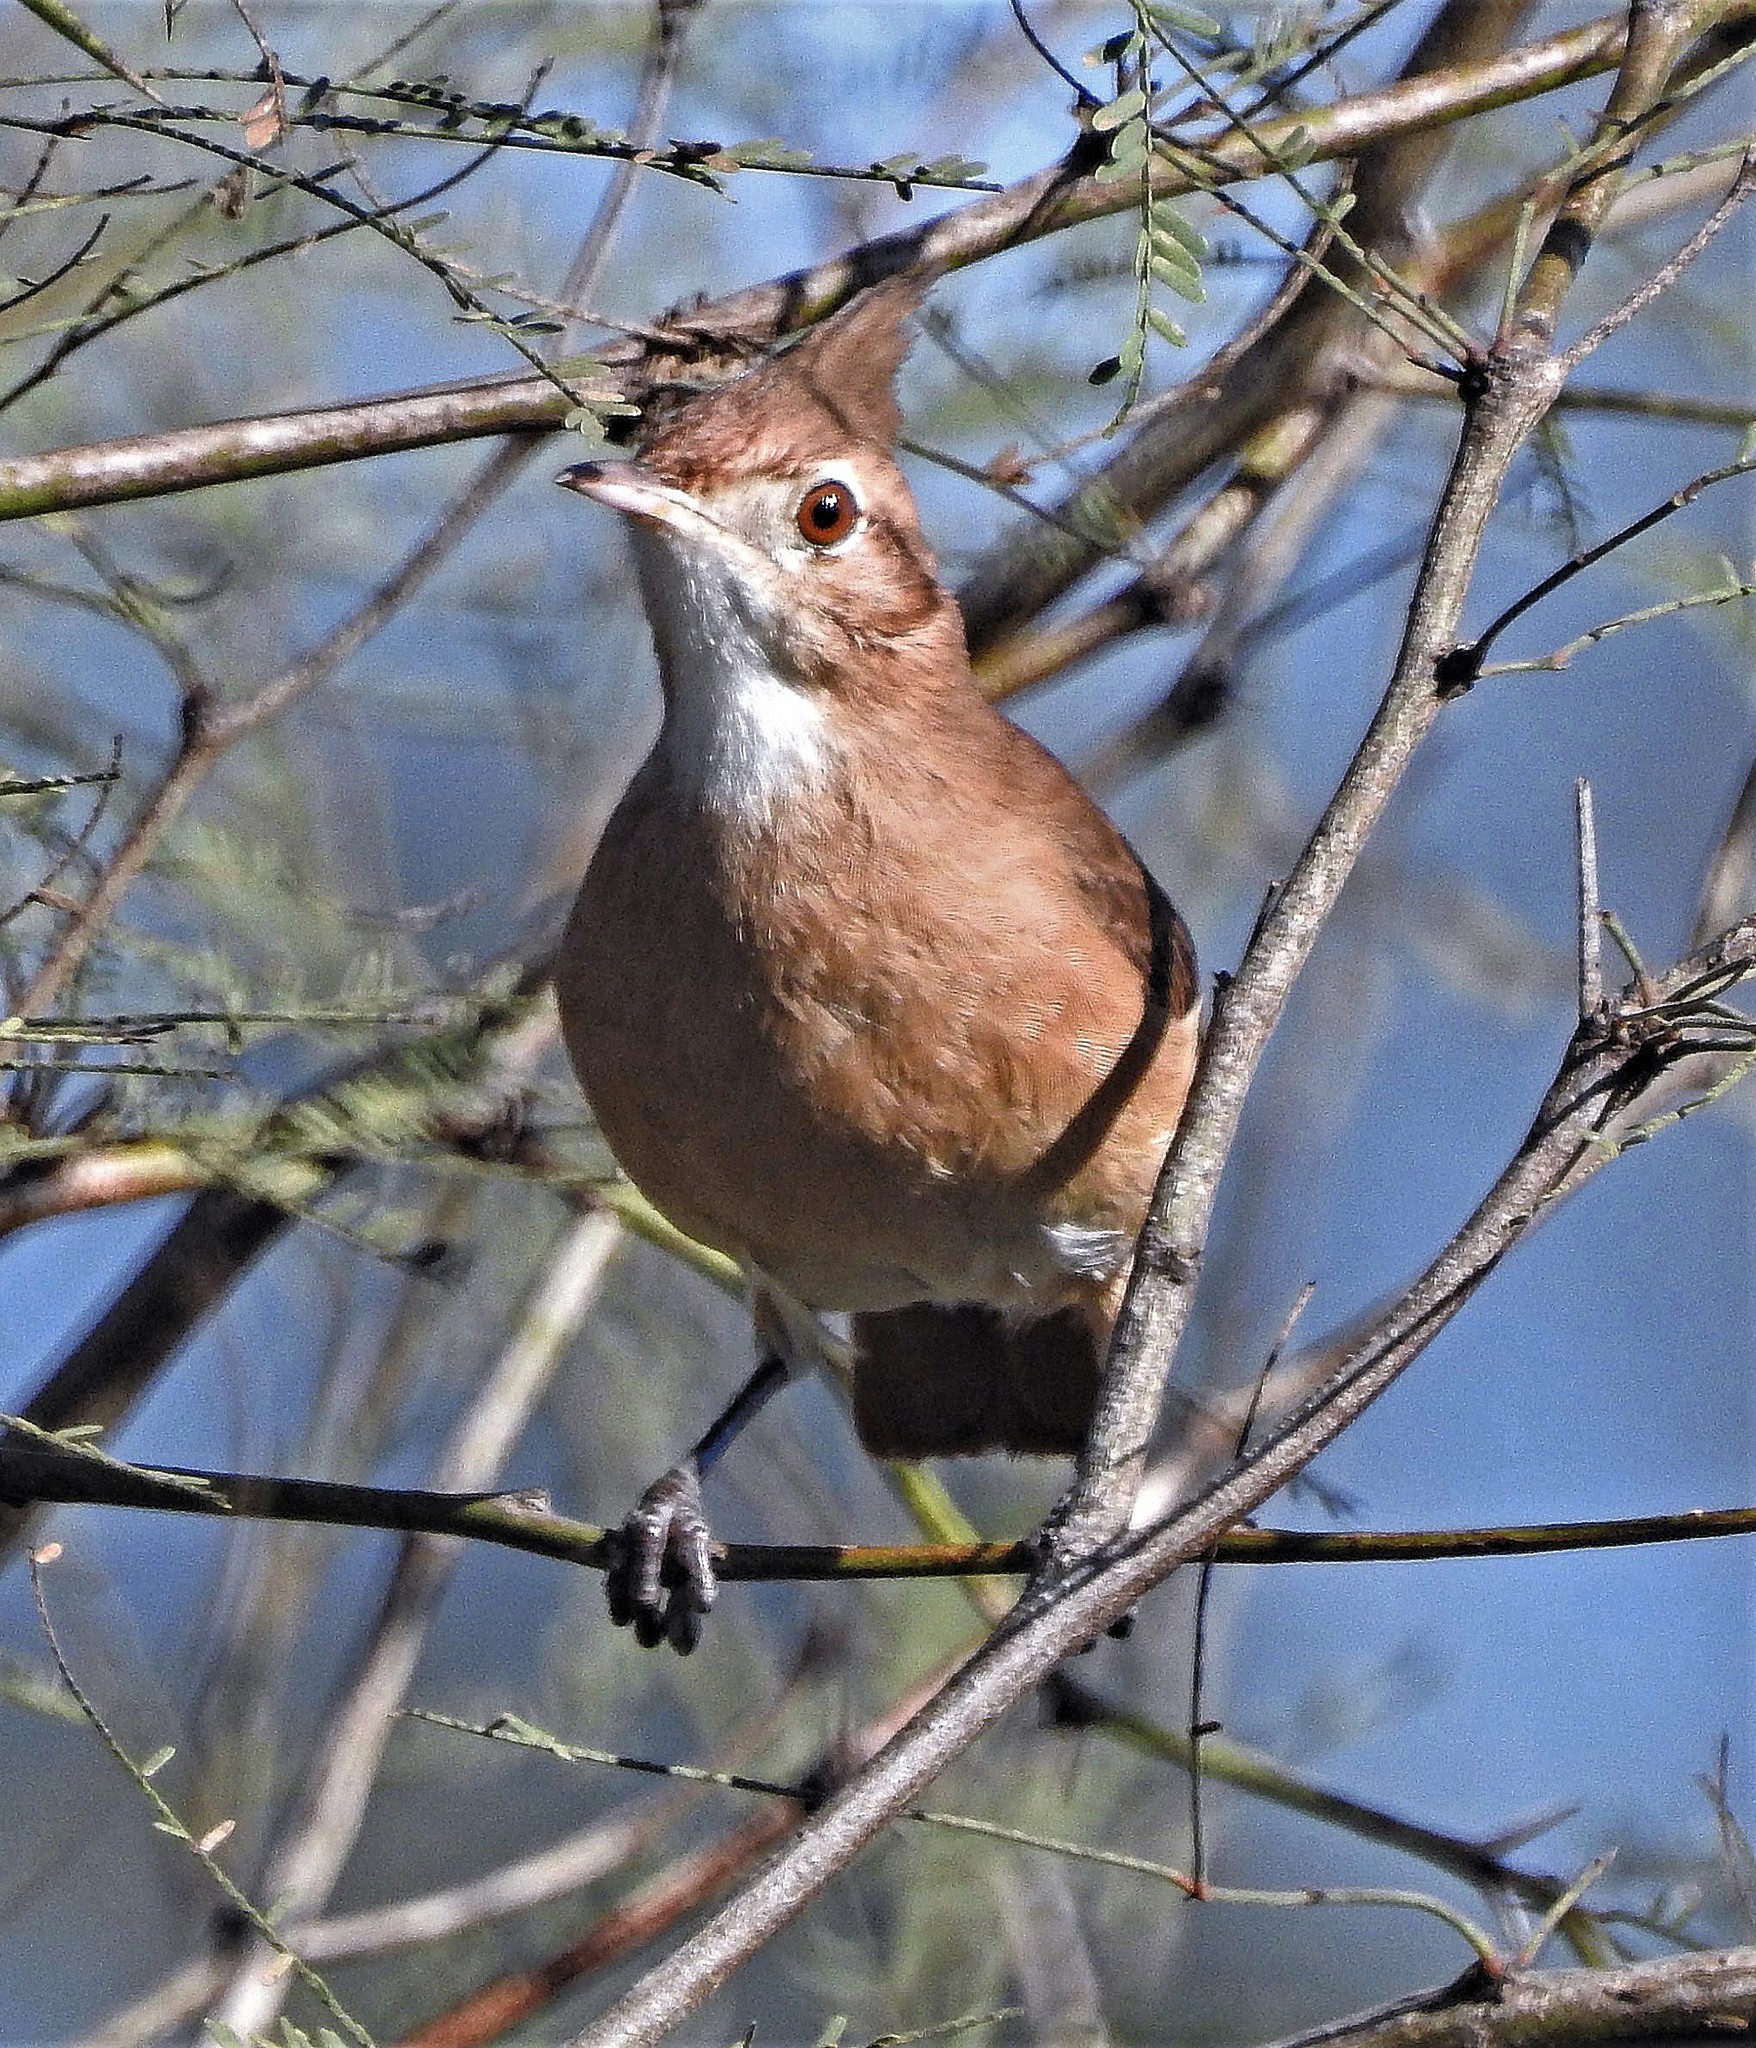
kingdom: Animalia
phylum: Chordata
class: Aves
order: Passeriformes
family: Furnariidae
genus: Furnarius
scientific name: Furnarius cristatus
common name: Crested hornero
